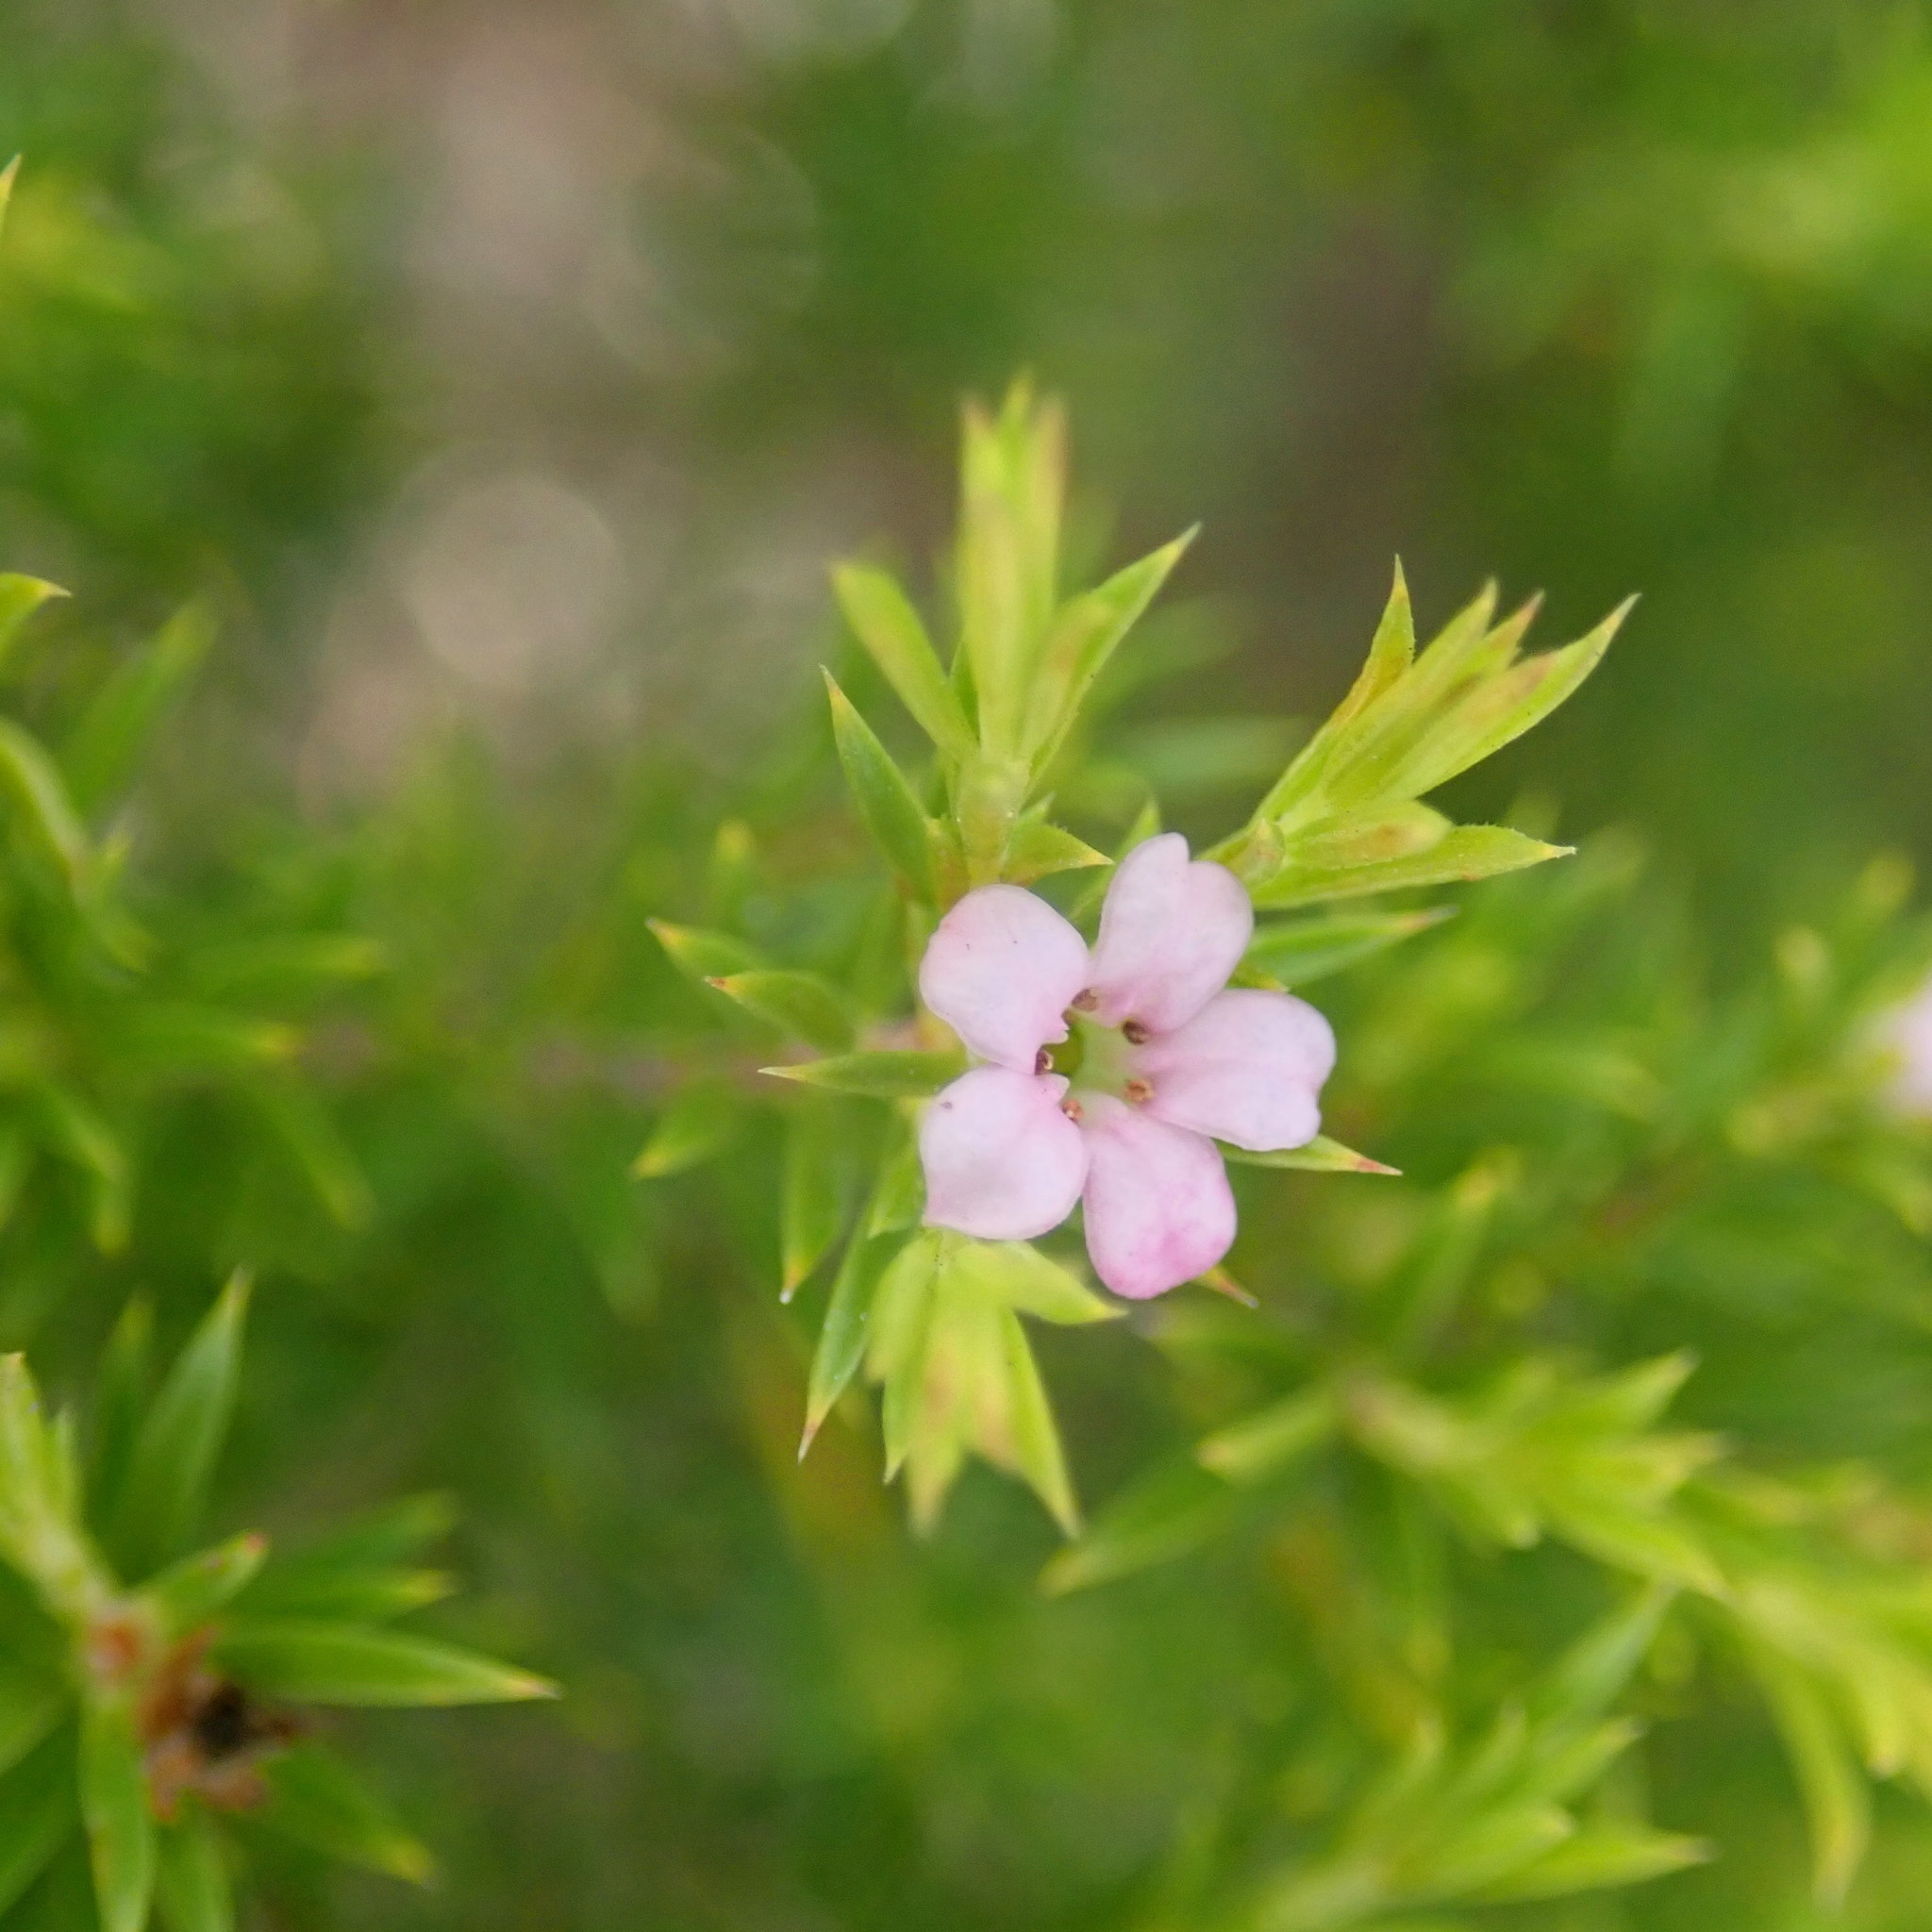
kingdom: Plantae
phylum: Tracheophyta
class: Magnoliopsida
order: Sapindales
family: Rutaceae
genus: Coleonema
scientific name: Coleonema pulchellum
